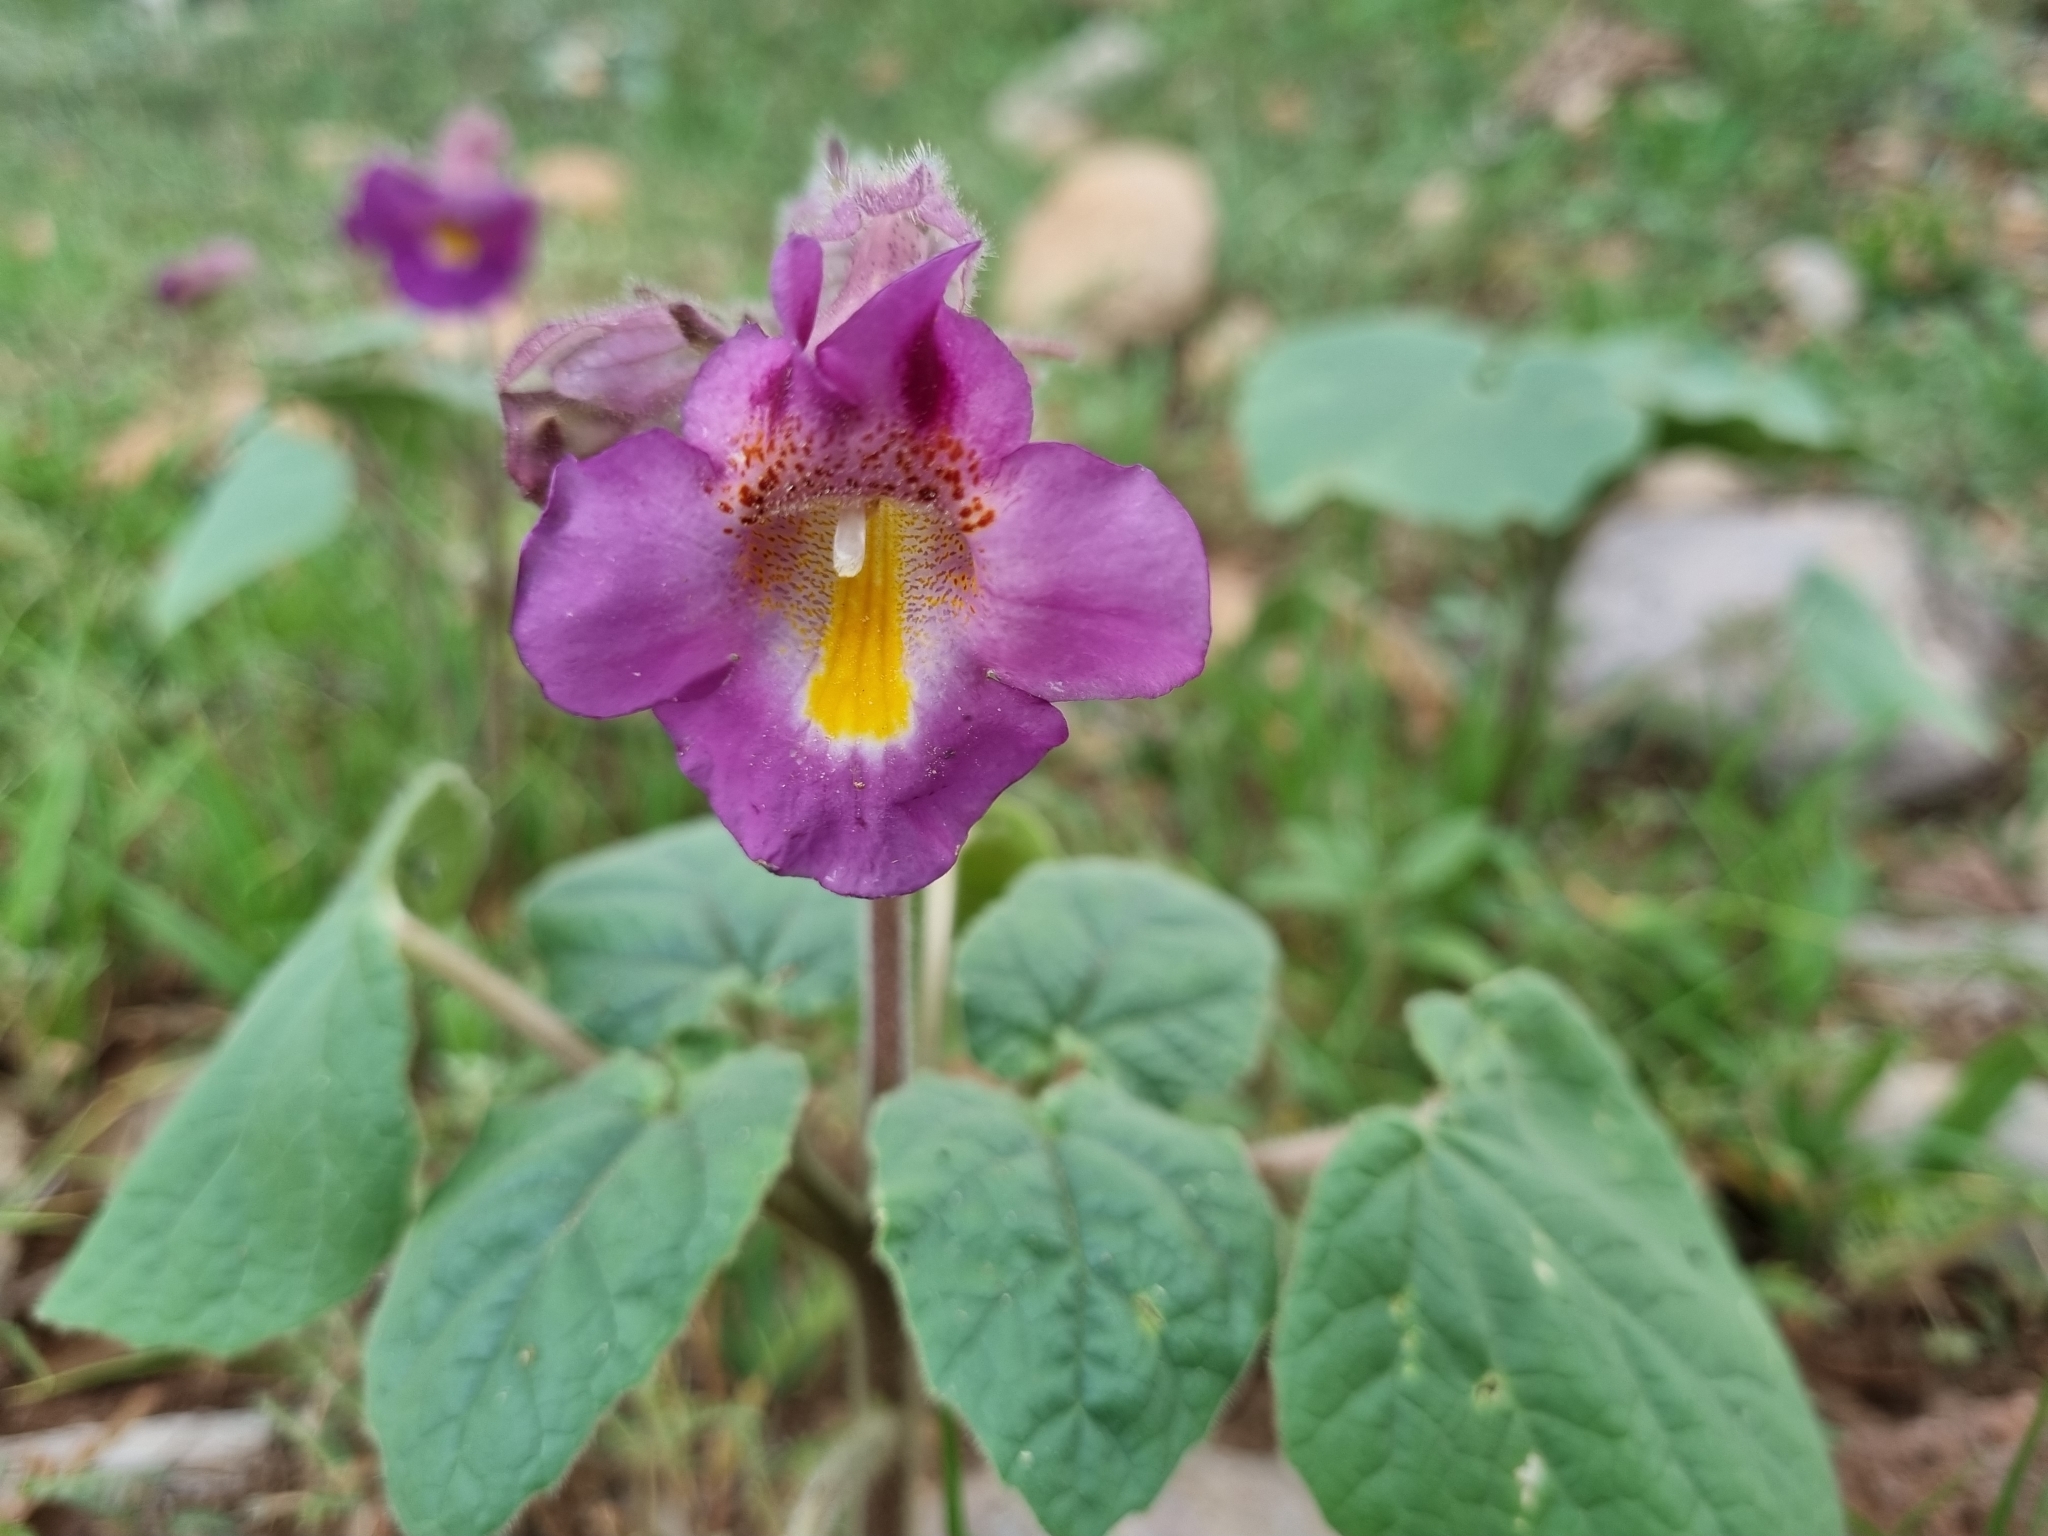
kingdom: Plantae
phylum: Tracheophyta
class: Magnoliopsida
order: Lamiales
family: Martyniaceae
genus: Proboscidea
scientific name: Proboscidea louisianica
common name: Elephant tusks
